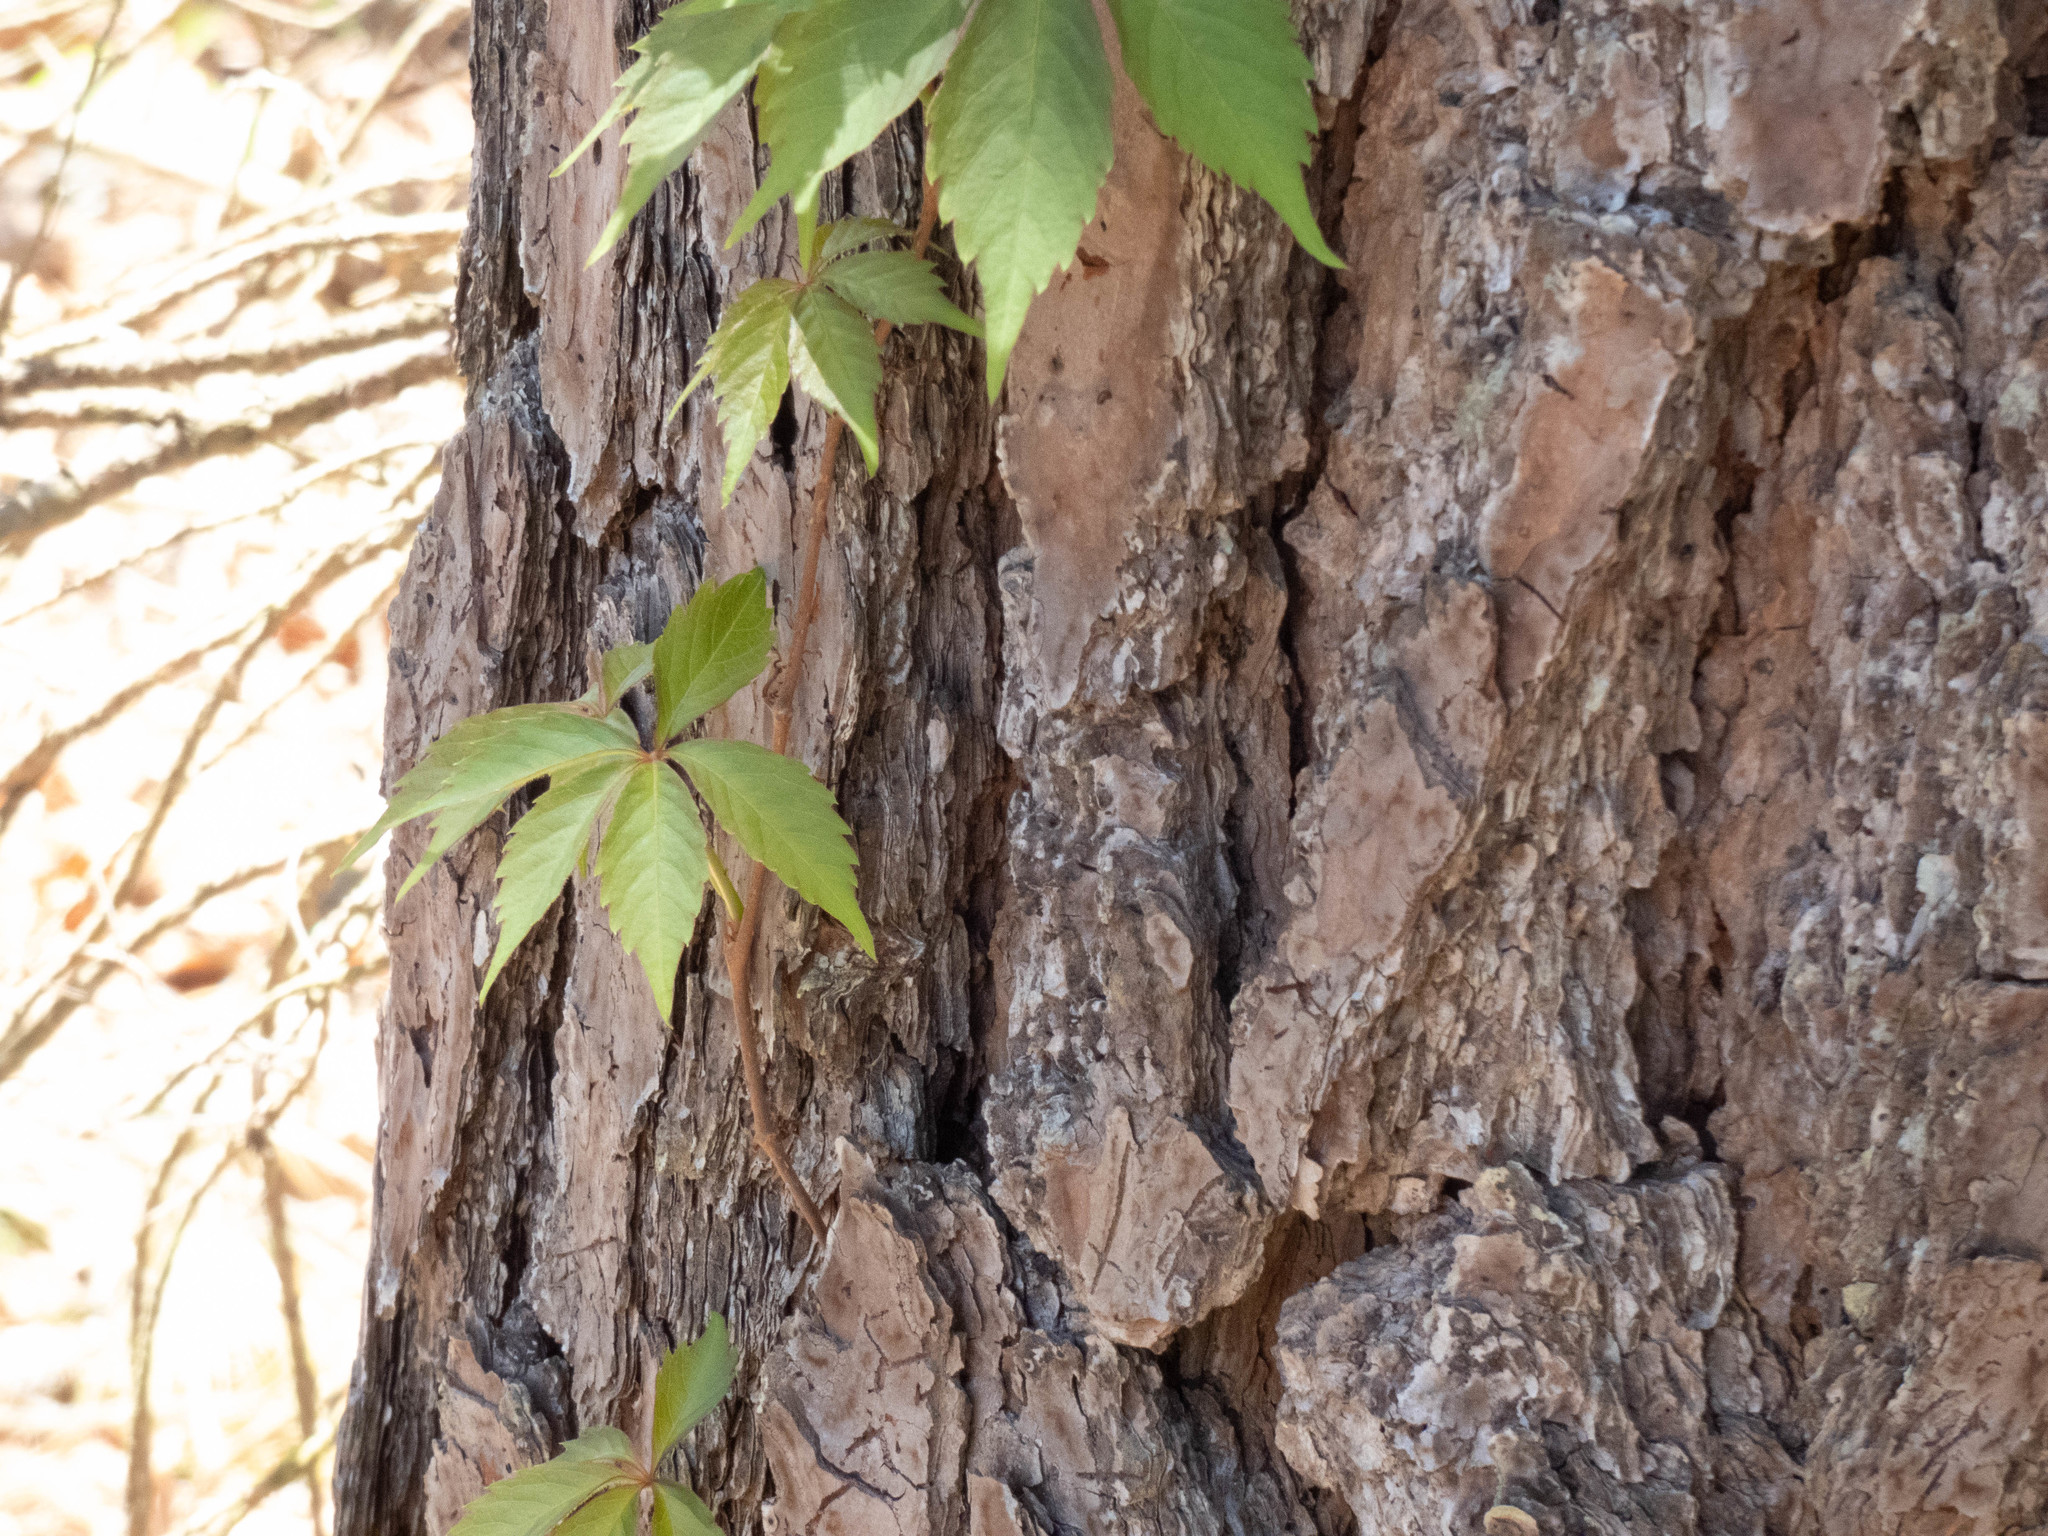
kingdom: Plantae
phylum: Tracheophyta
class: Magnoliopsida
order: Vitales
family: Vitaceae
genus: Parthenocissus
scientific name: Parthenocissus quinquefolia
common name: Virginia-creeper
